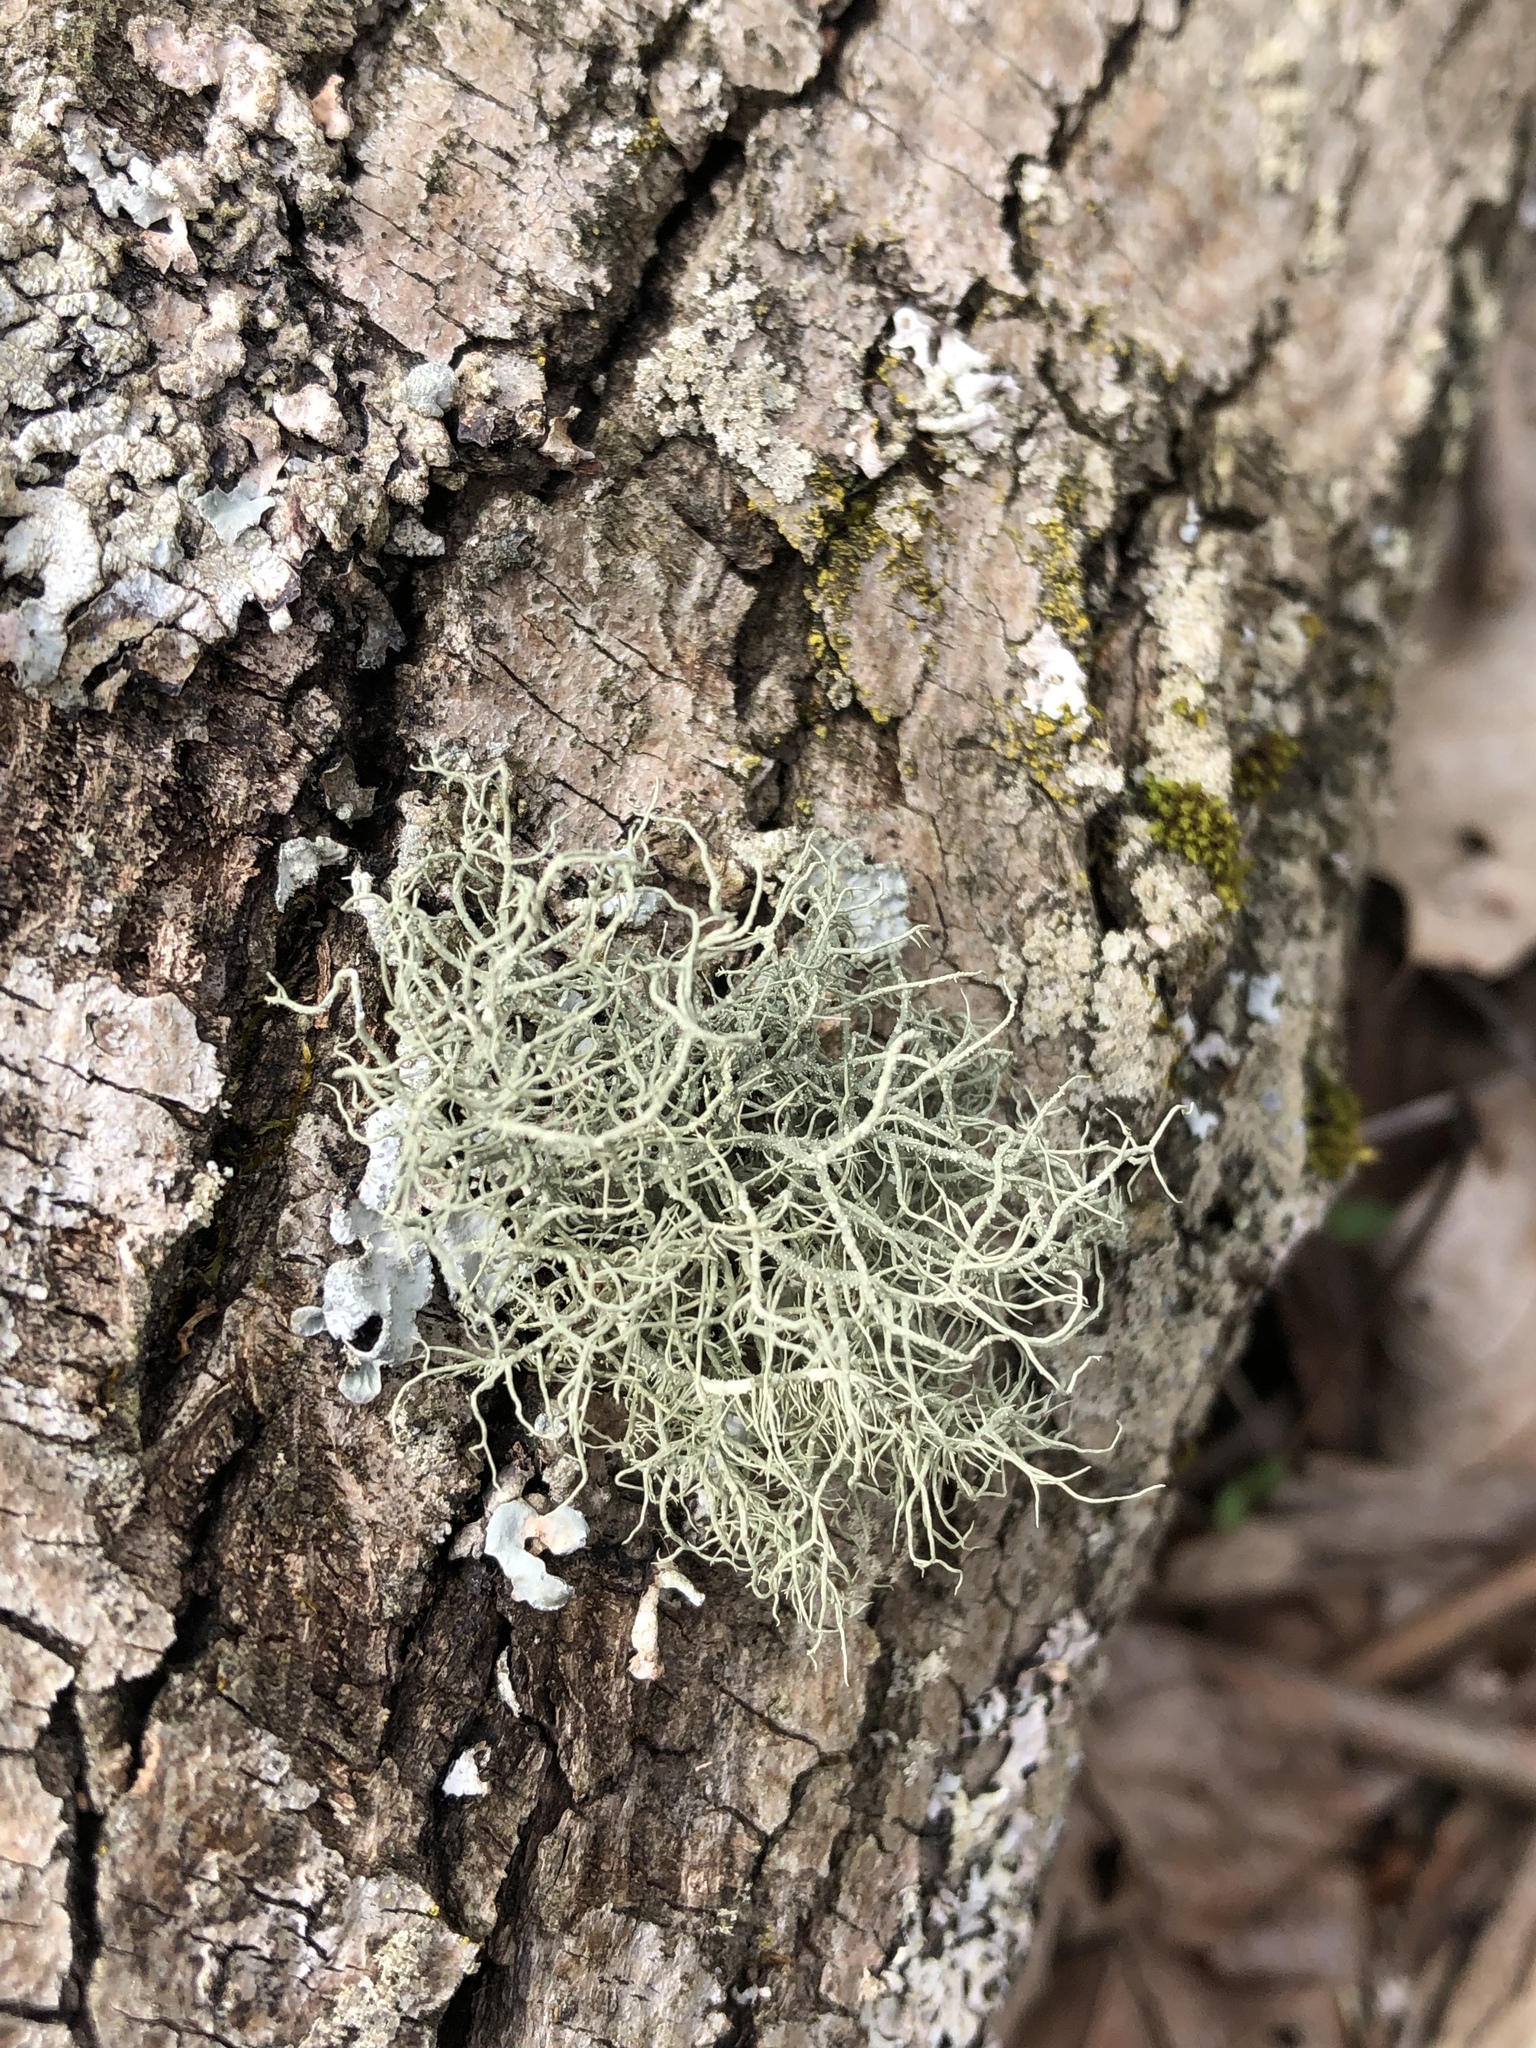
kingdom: Fungi
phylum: Ascomycota
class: Lecanoromycetes
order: Lecanorales
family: Parmeliaceae
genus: Usnea
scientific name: Usnea hirta
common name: Bristly beard lichen
